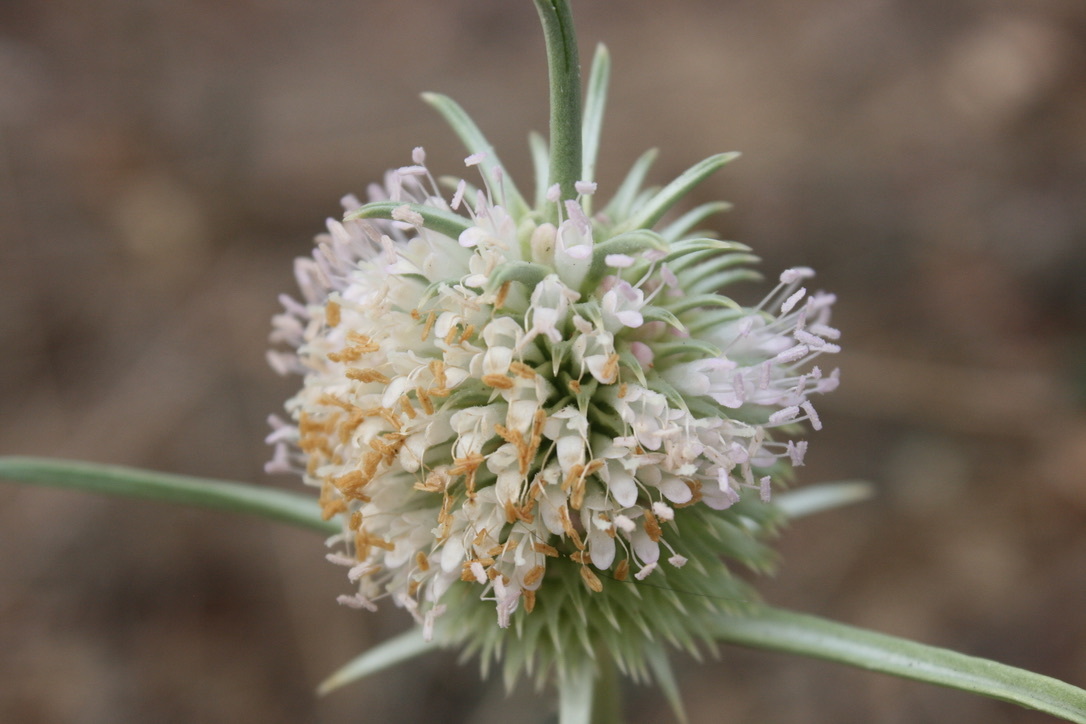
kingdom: Plantae
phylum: Tracheophyta
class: Magnoliopsida
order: Dipsacales
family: Caprifoliaceae
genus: Dipsacus
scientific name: Dipsacus sativus
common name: Fuller's teasel
